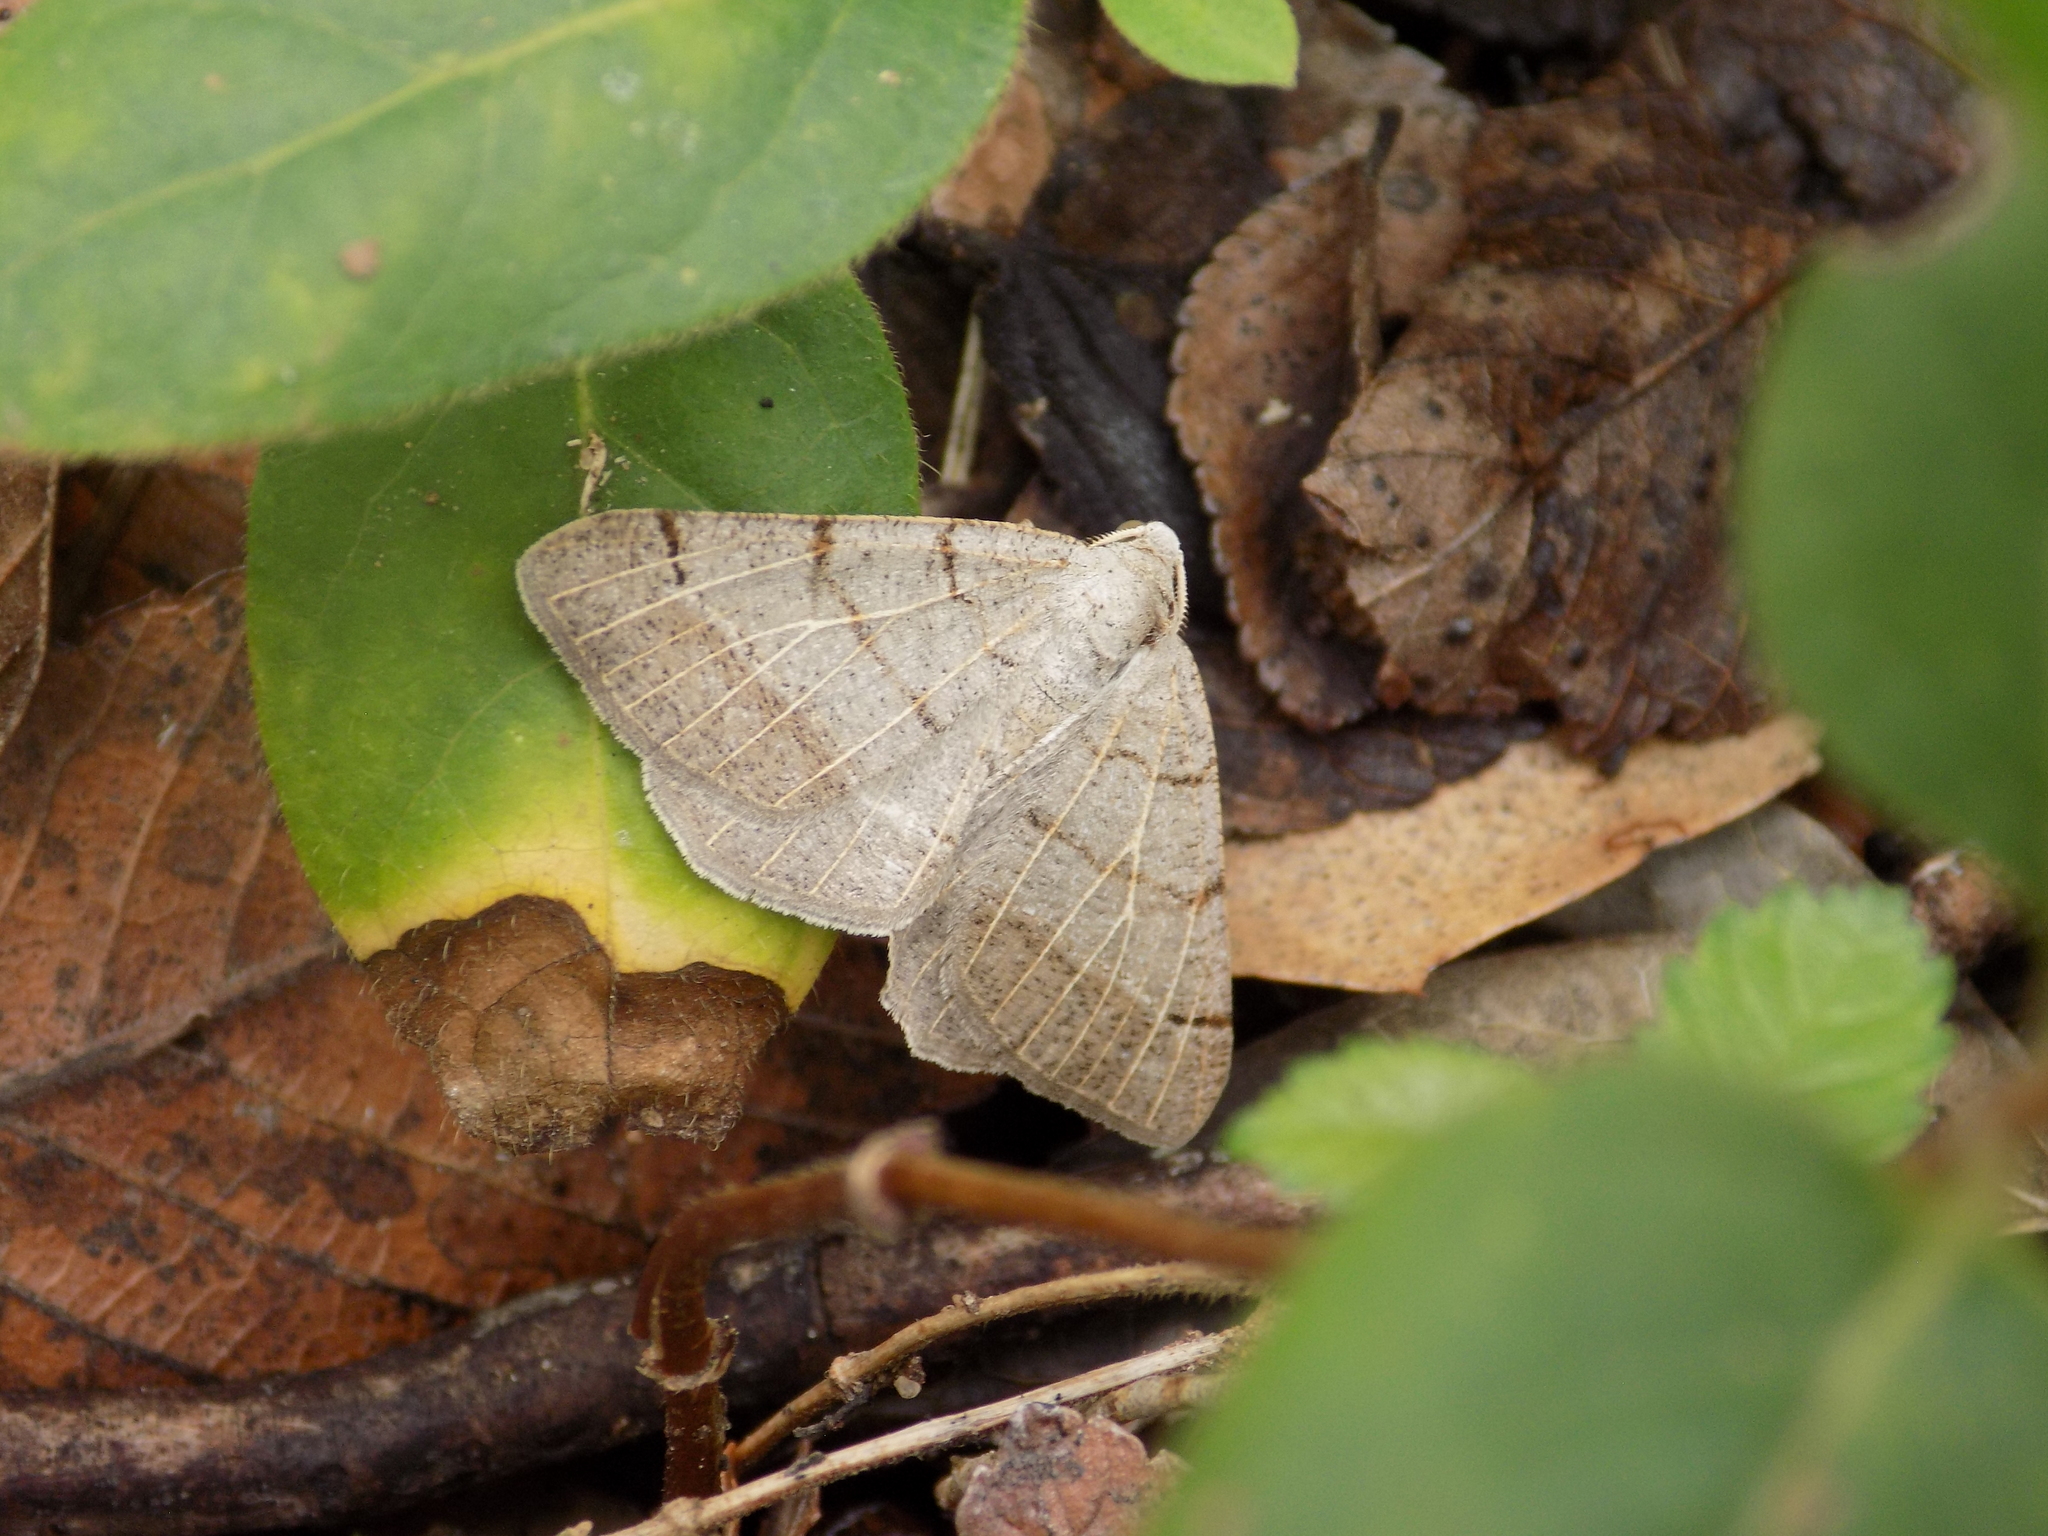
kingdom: Animalia
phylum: Arthropoda
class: Insecta
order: Lepidoptera
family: Geometridae
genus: Isturgia
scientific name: Isturgia dislocaria
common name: Pale-viened enconista
